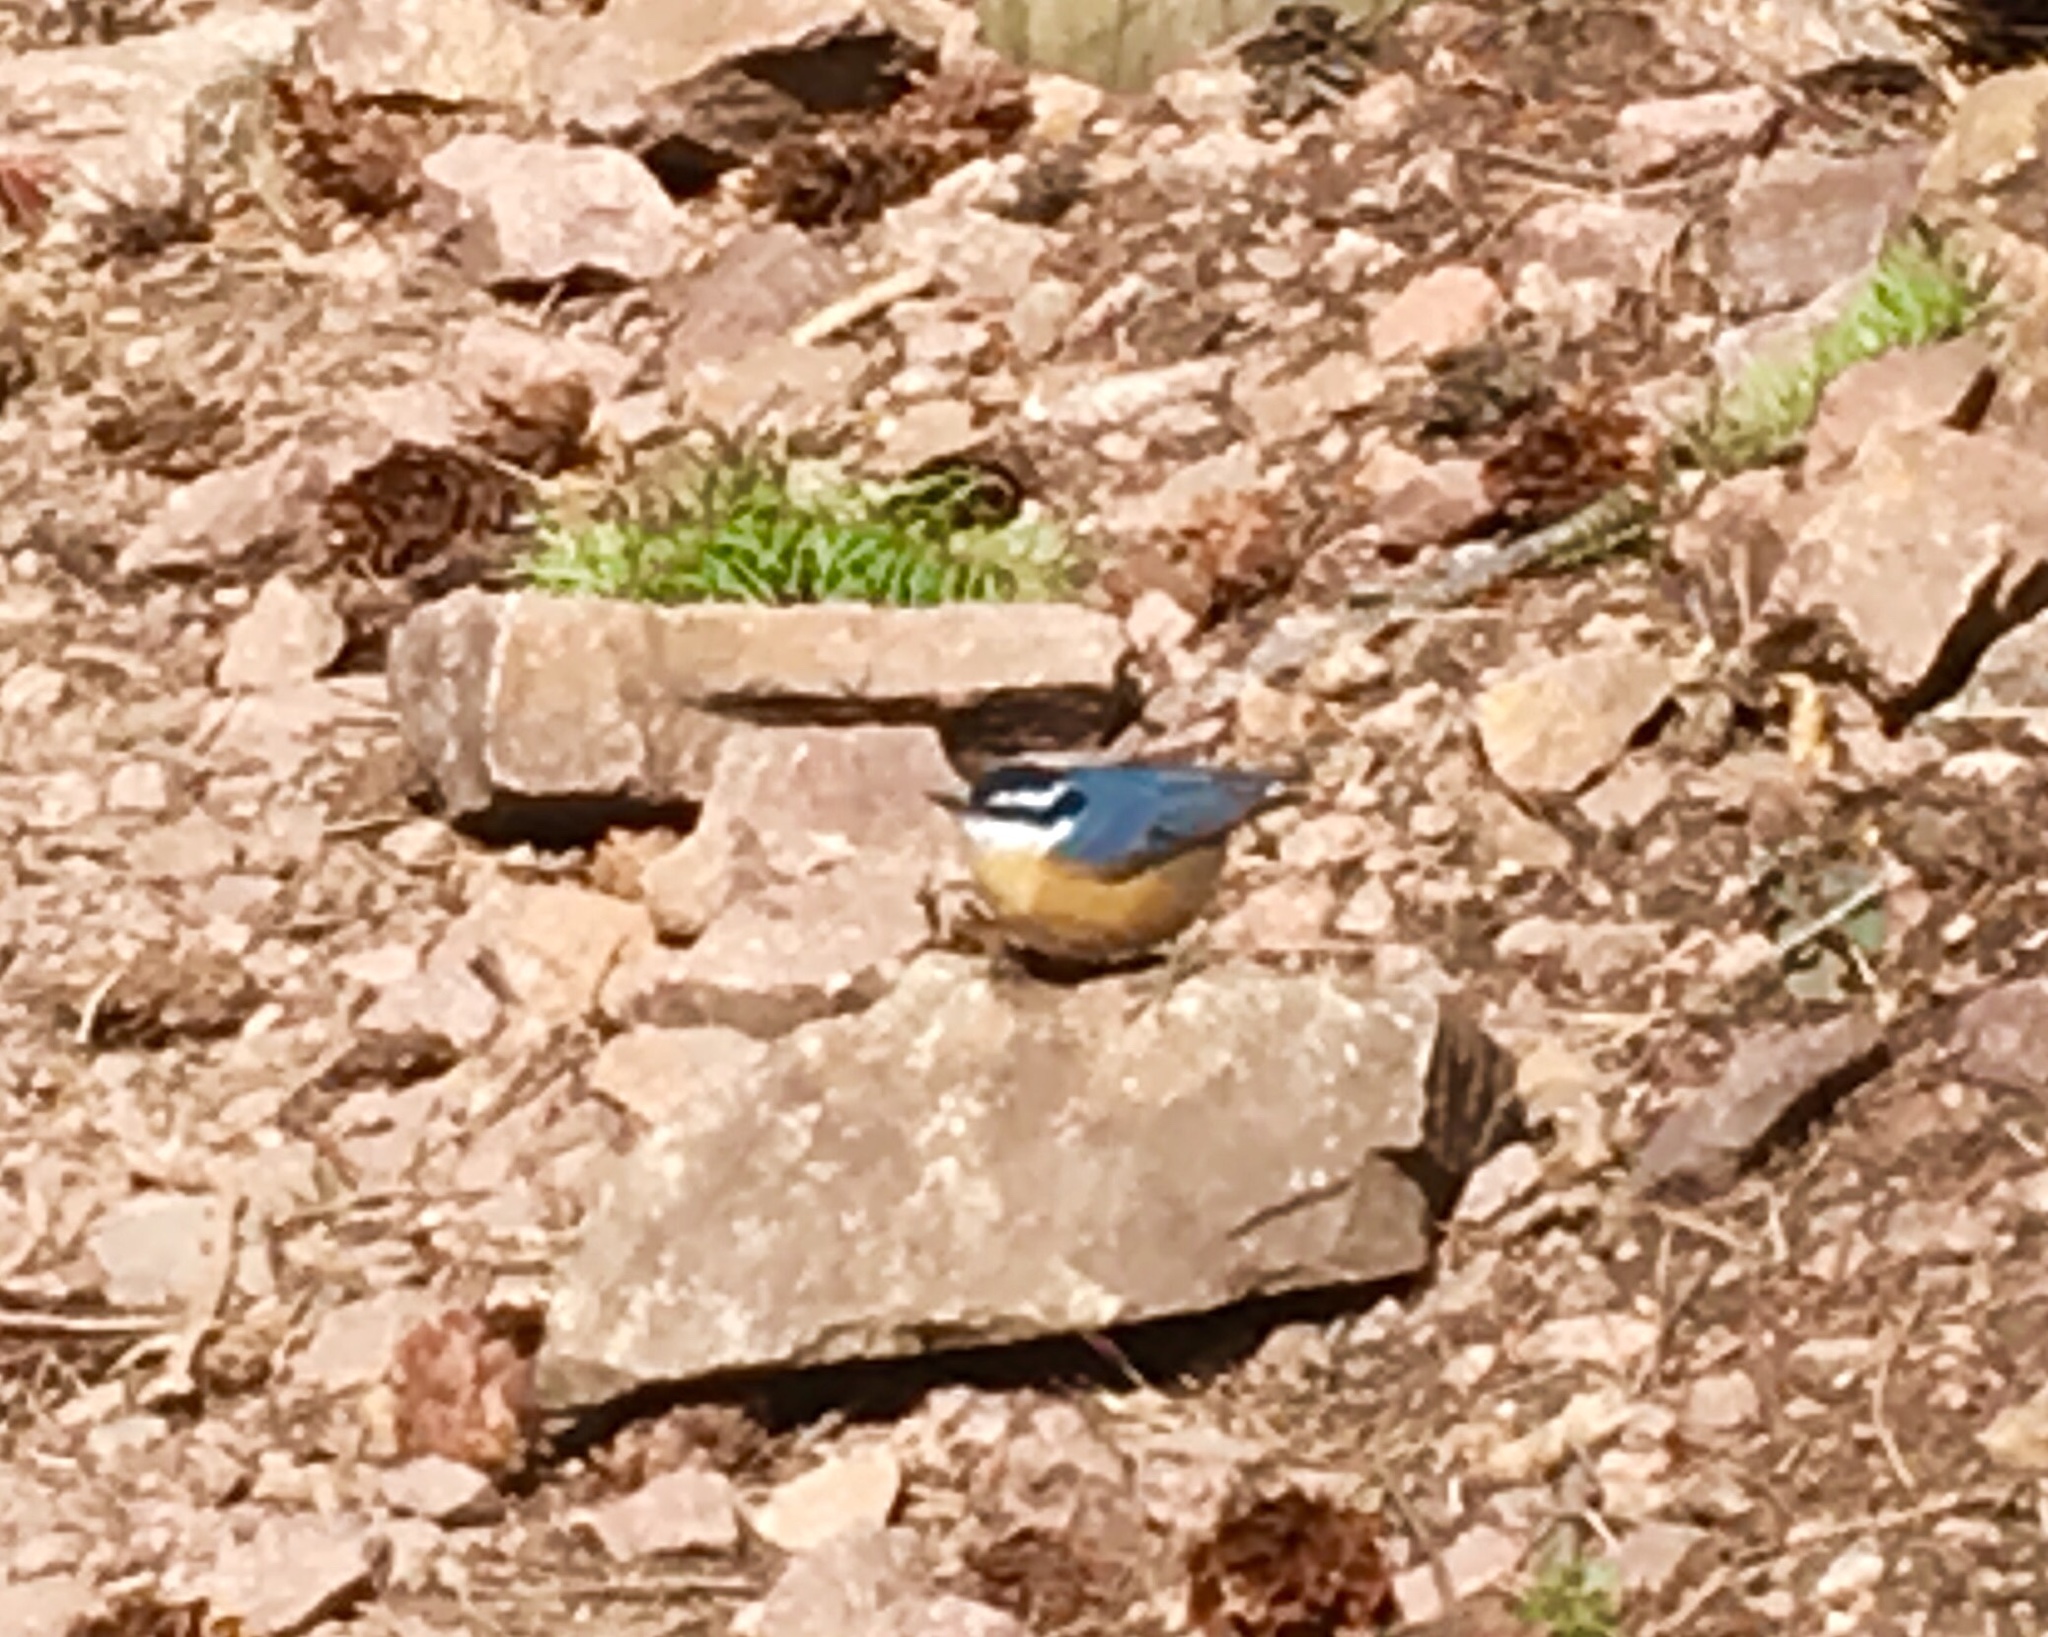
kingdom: Animalia
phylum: Chordata
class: Aves
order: Passeriformes
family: Sittidae
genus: Sitta
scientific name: Sitta canadensis
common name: Red-breasted nuthatch
